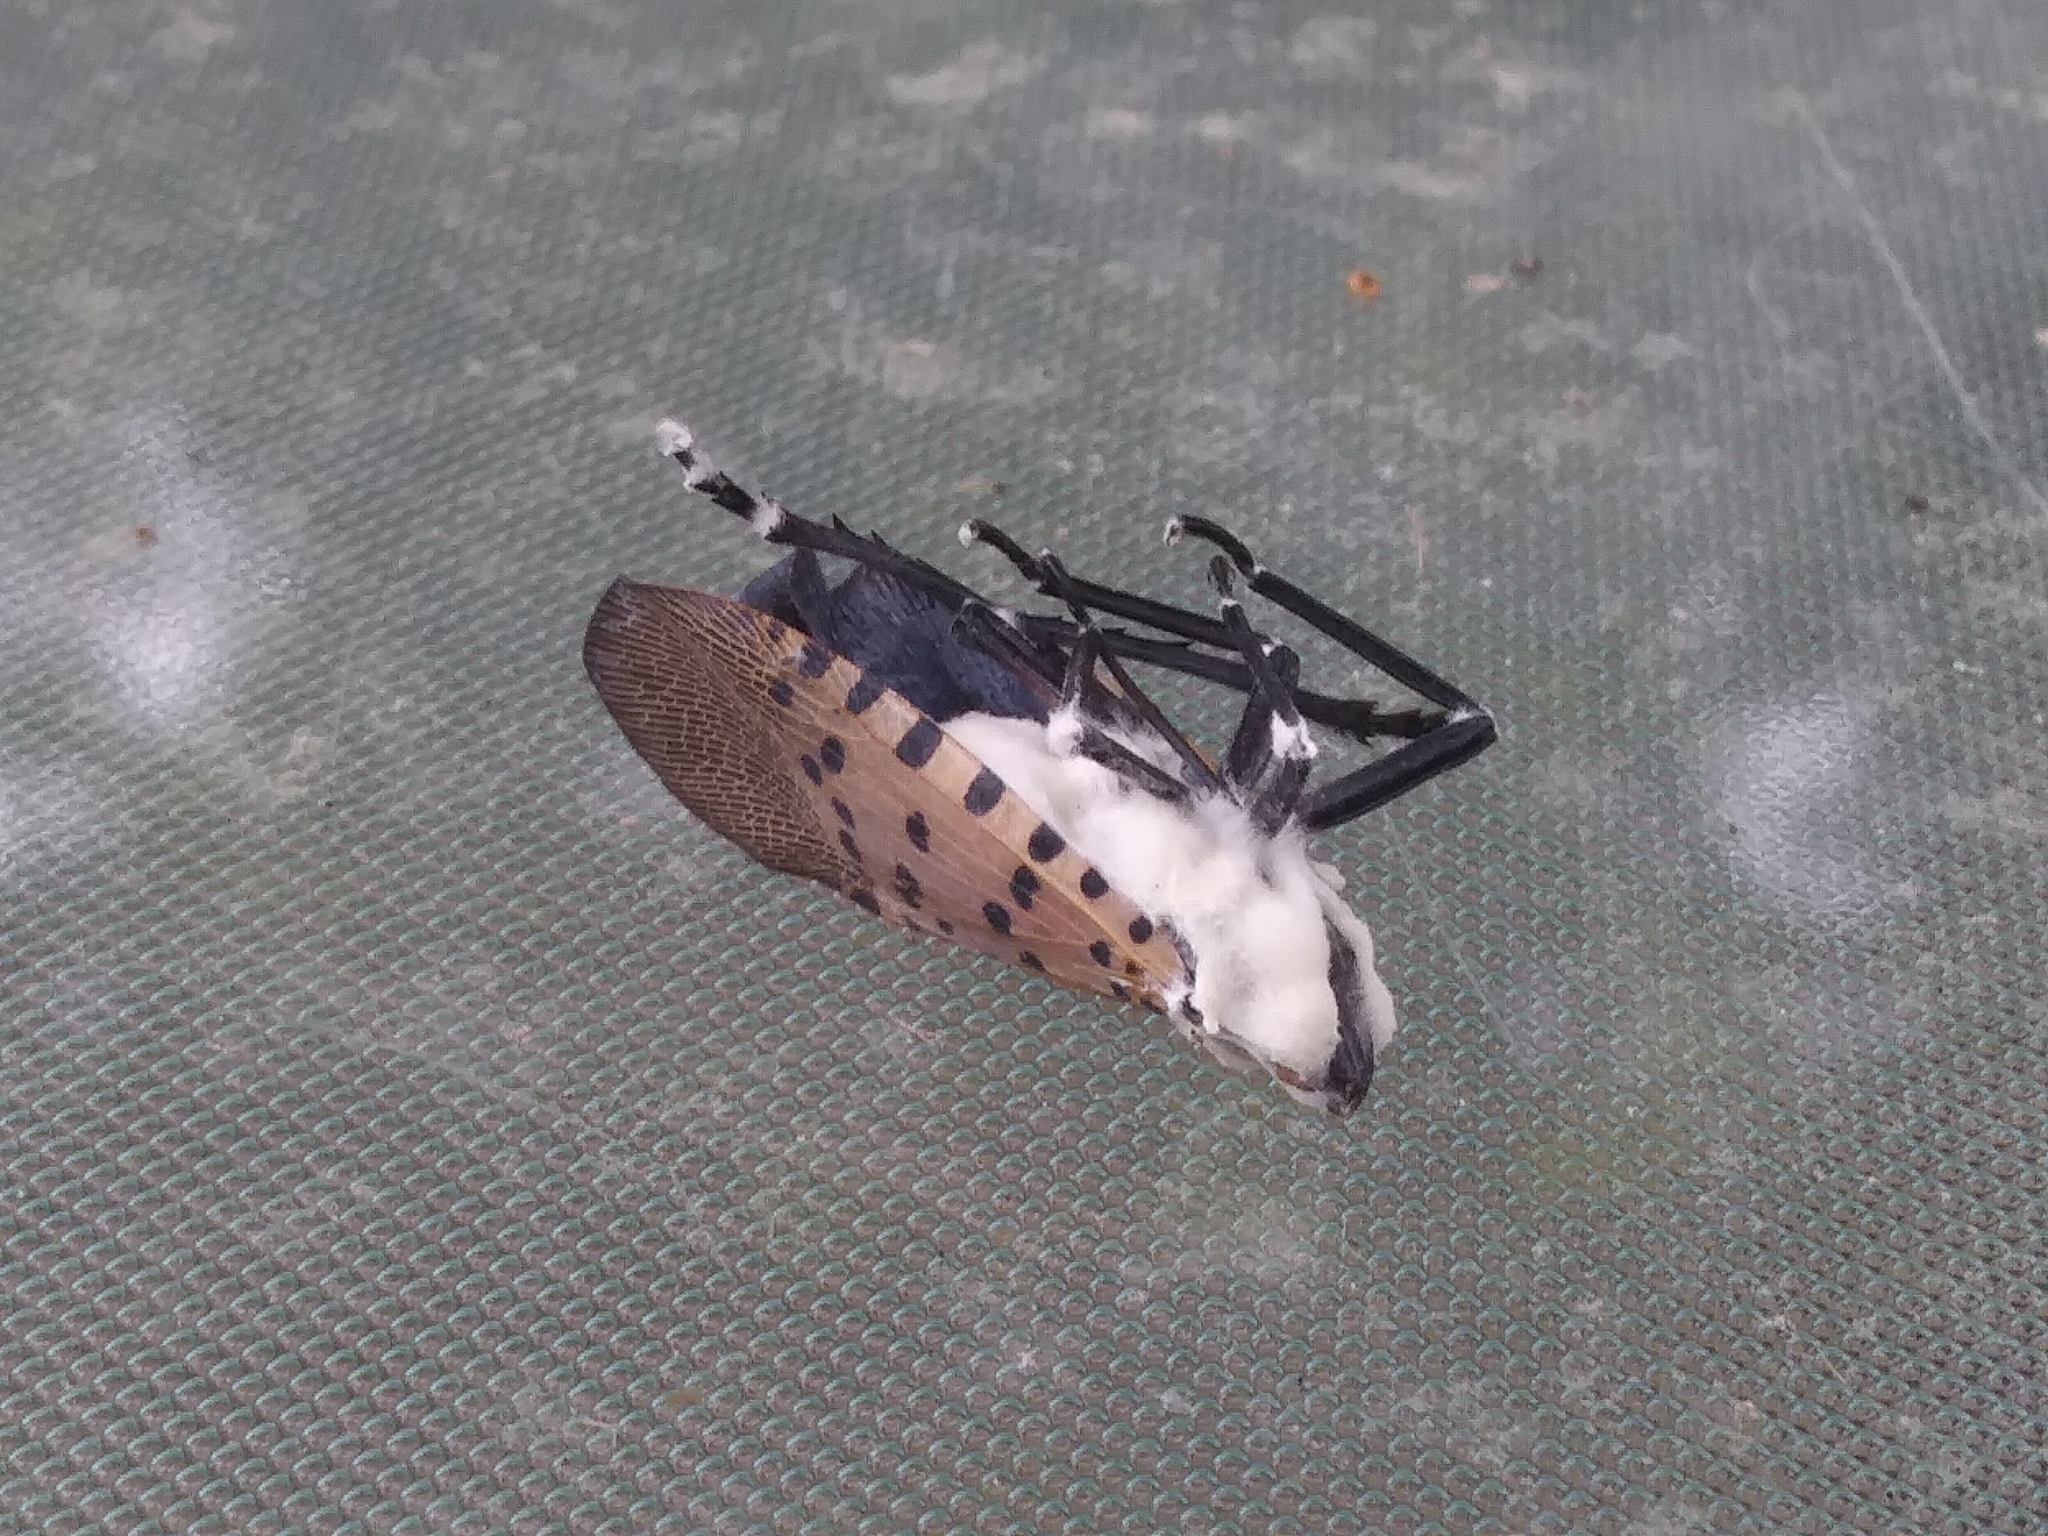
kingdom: Fungi
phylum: Ascomycota
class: Sordariomycetes
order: Hypocreales
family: Cordycipitaceae
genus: Beauveria
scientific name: Beauveria bassiana
